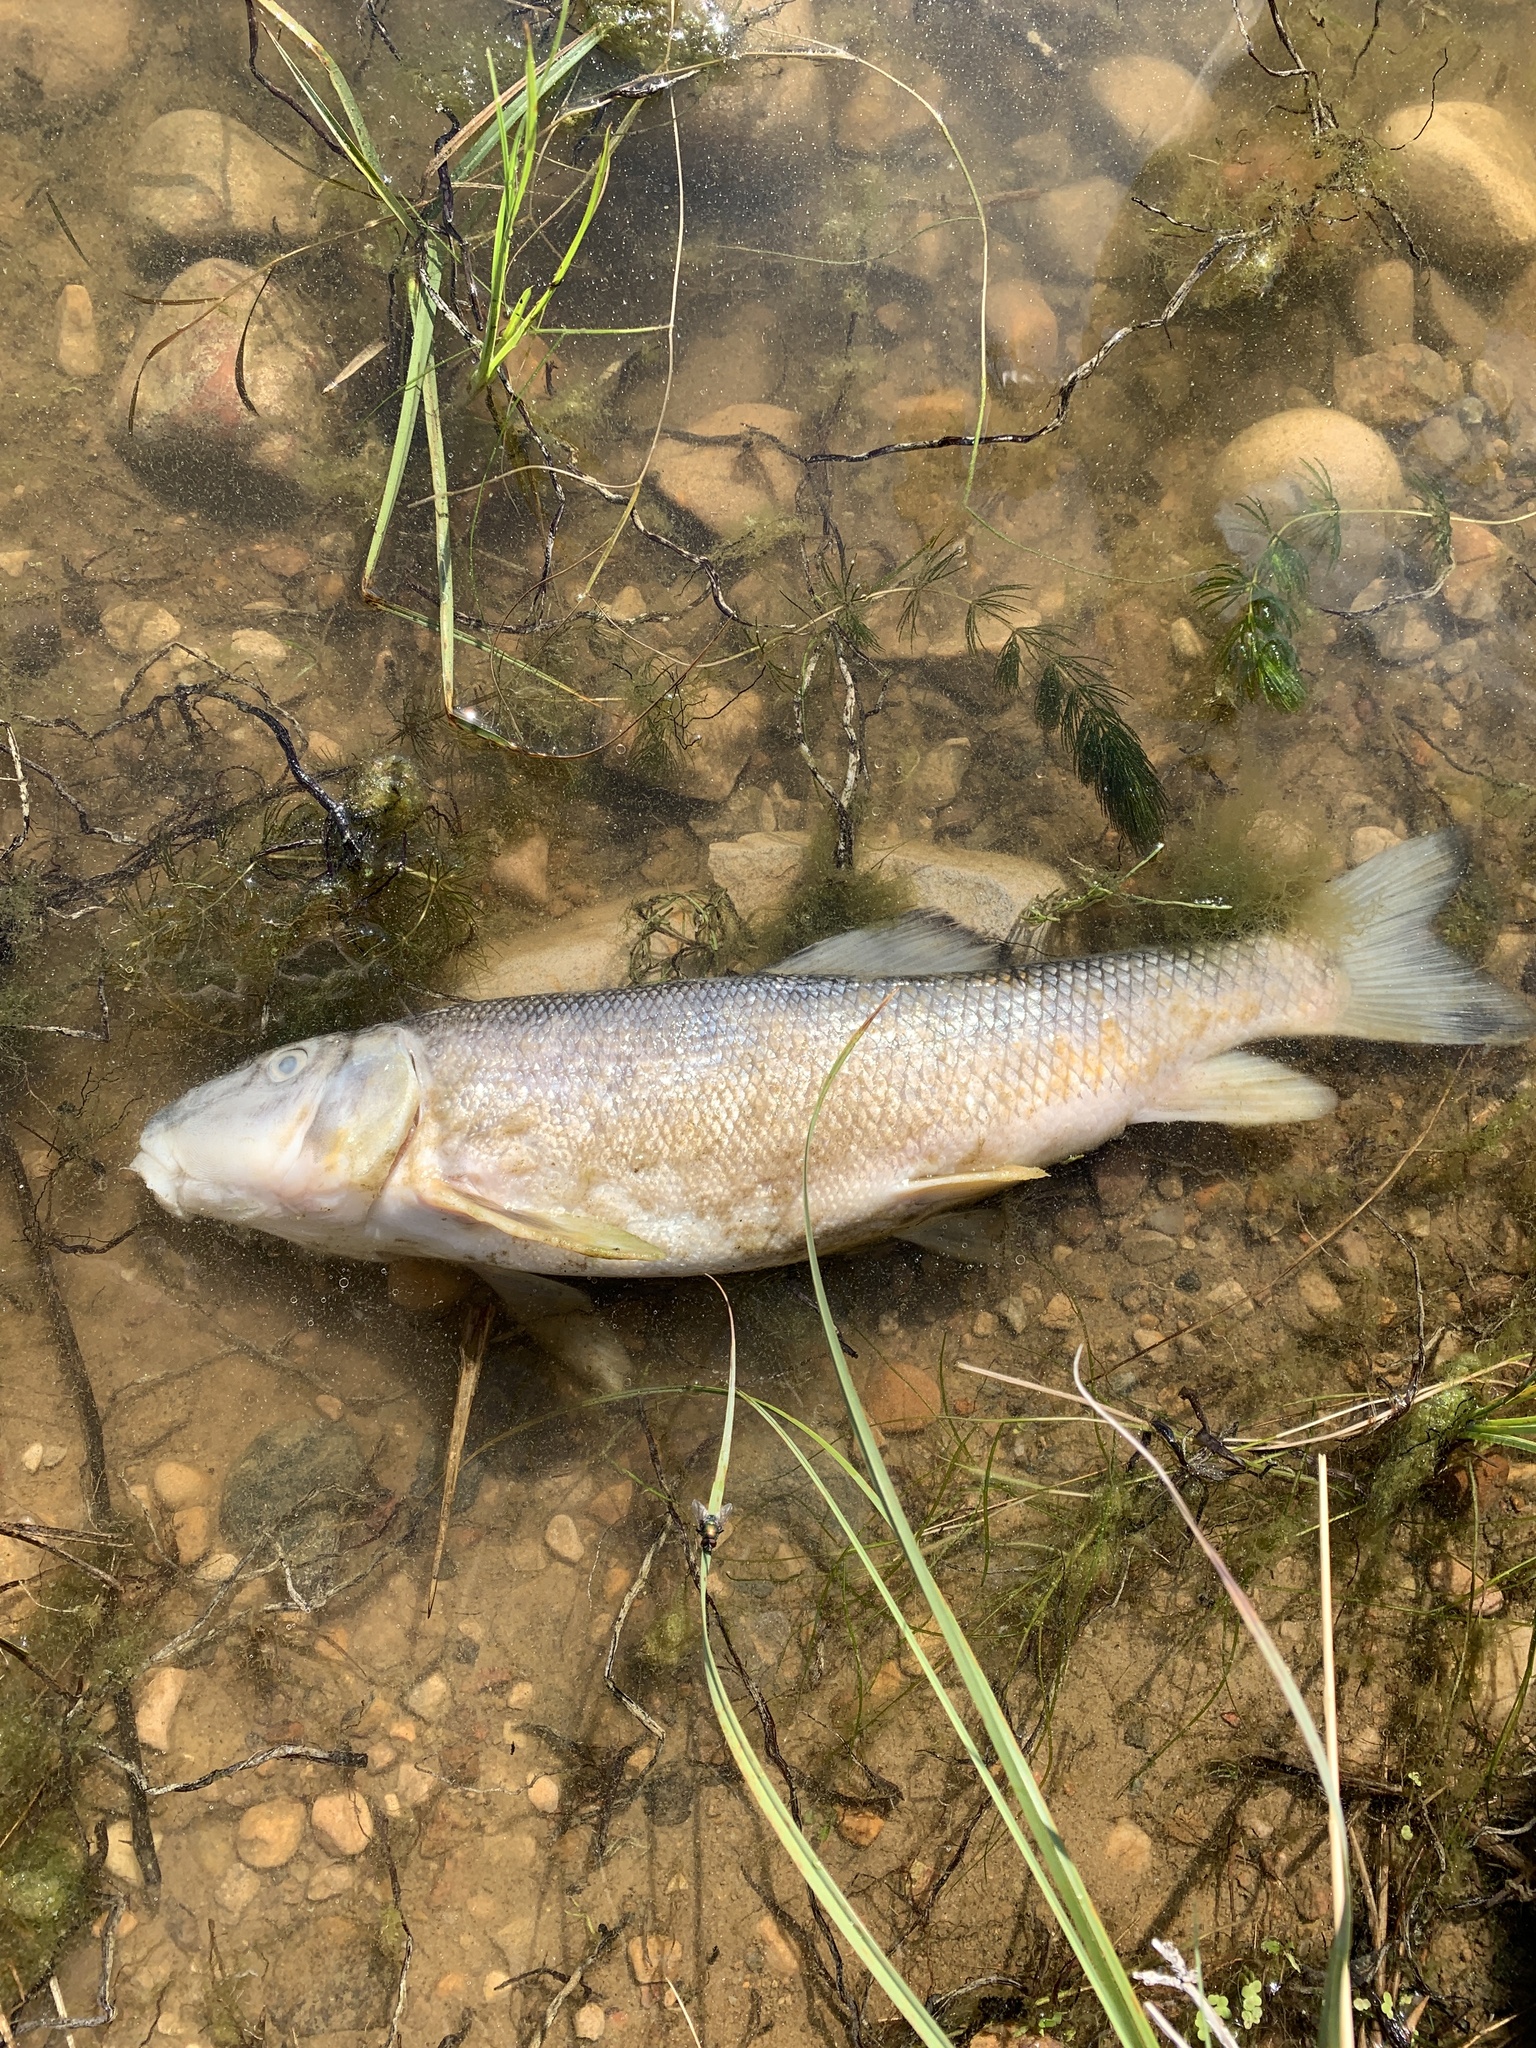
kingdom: Animalia
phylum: Chordata
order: Cypriniformes
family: Catostomidae
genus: Catostomus
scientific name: Catostomus commersonii
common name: White sucker
